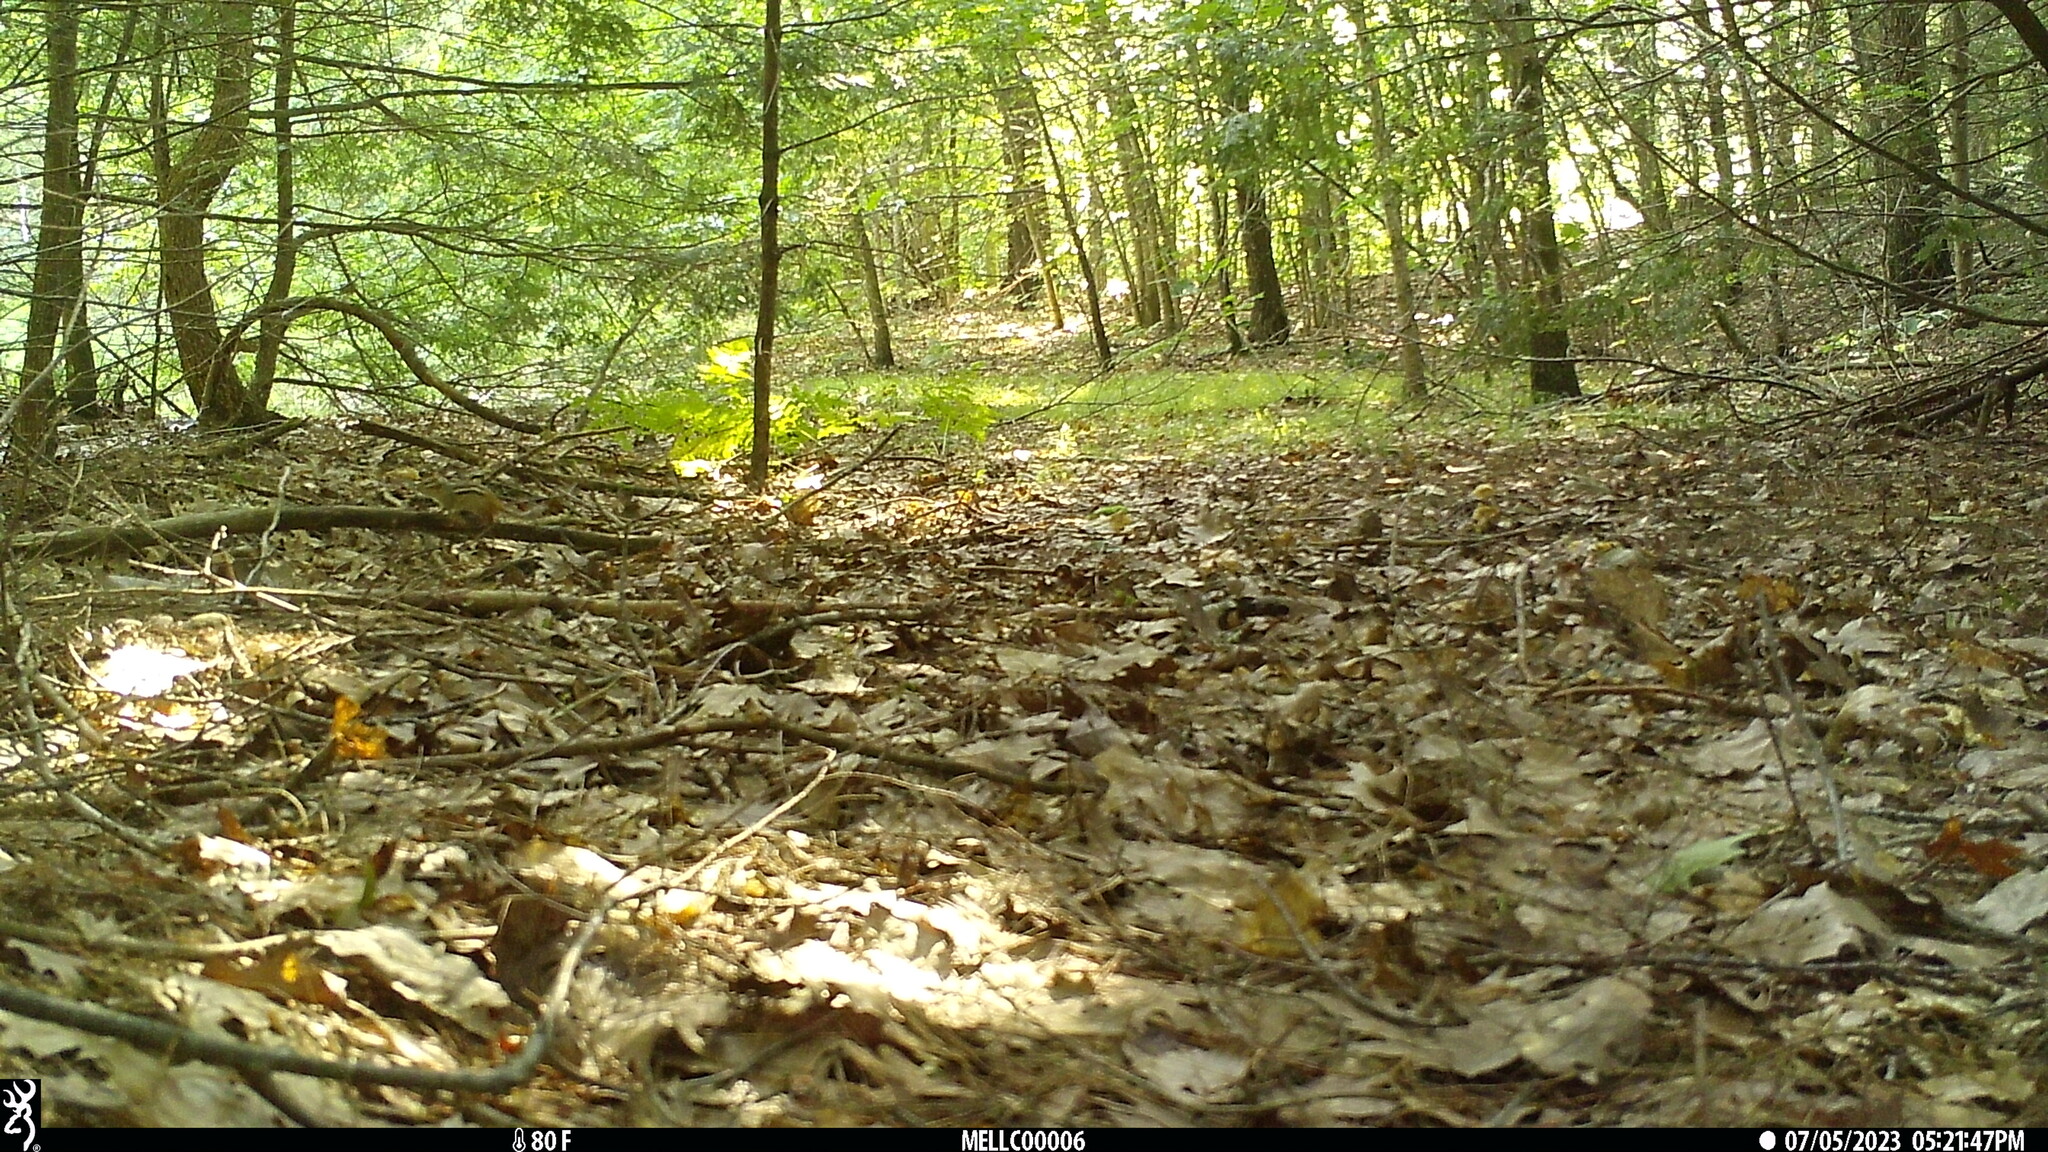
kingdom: Animalia
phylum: Chordata
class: Mammalia
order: Rodentia
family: Sciuridae
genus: Tamias
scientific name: Tamias striatus
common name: Eastern chipmunk
